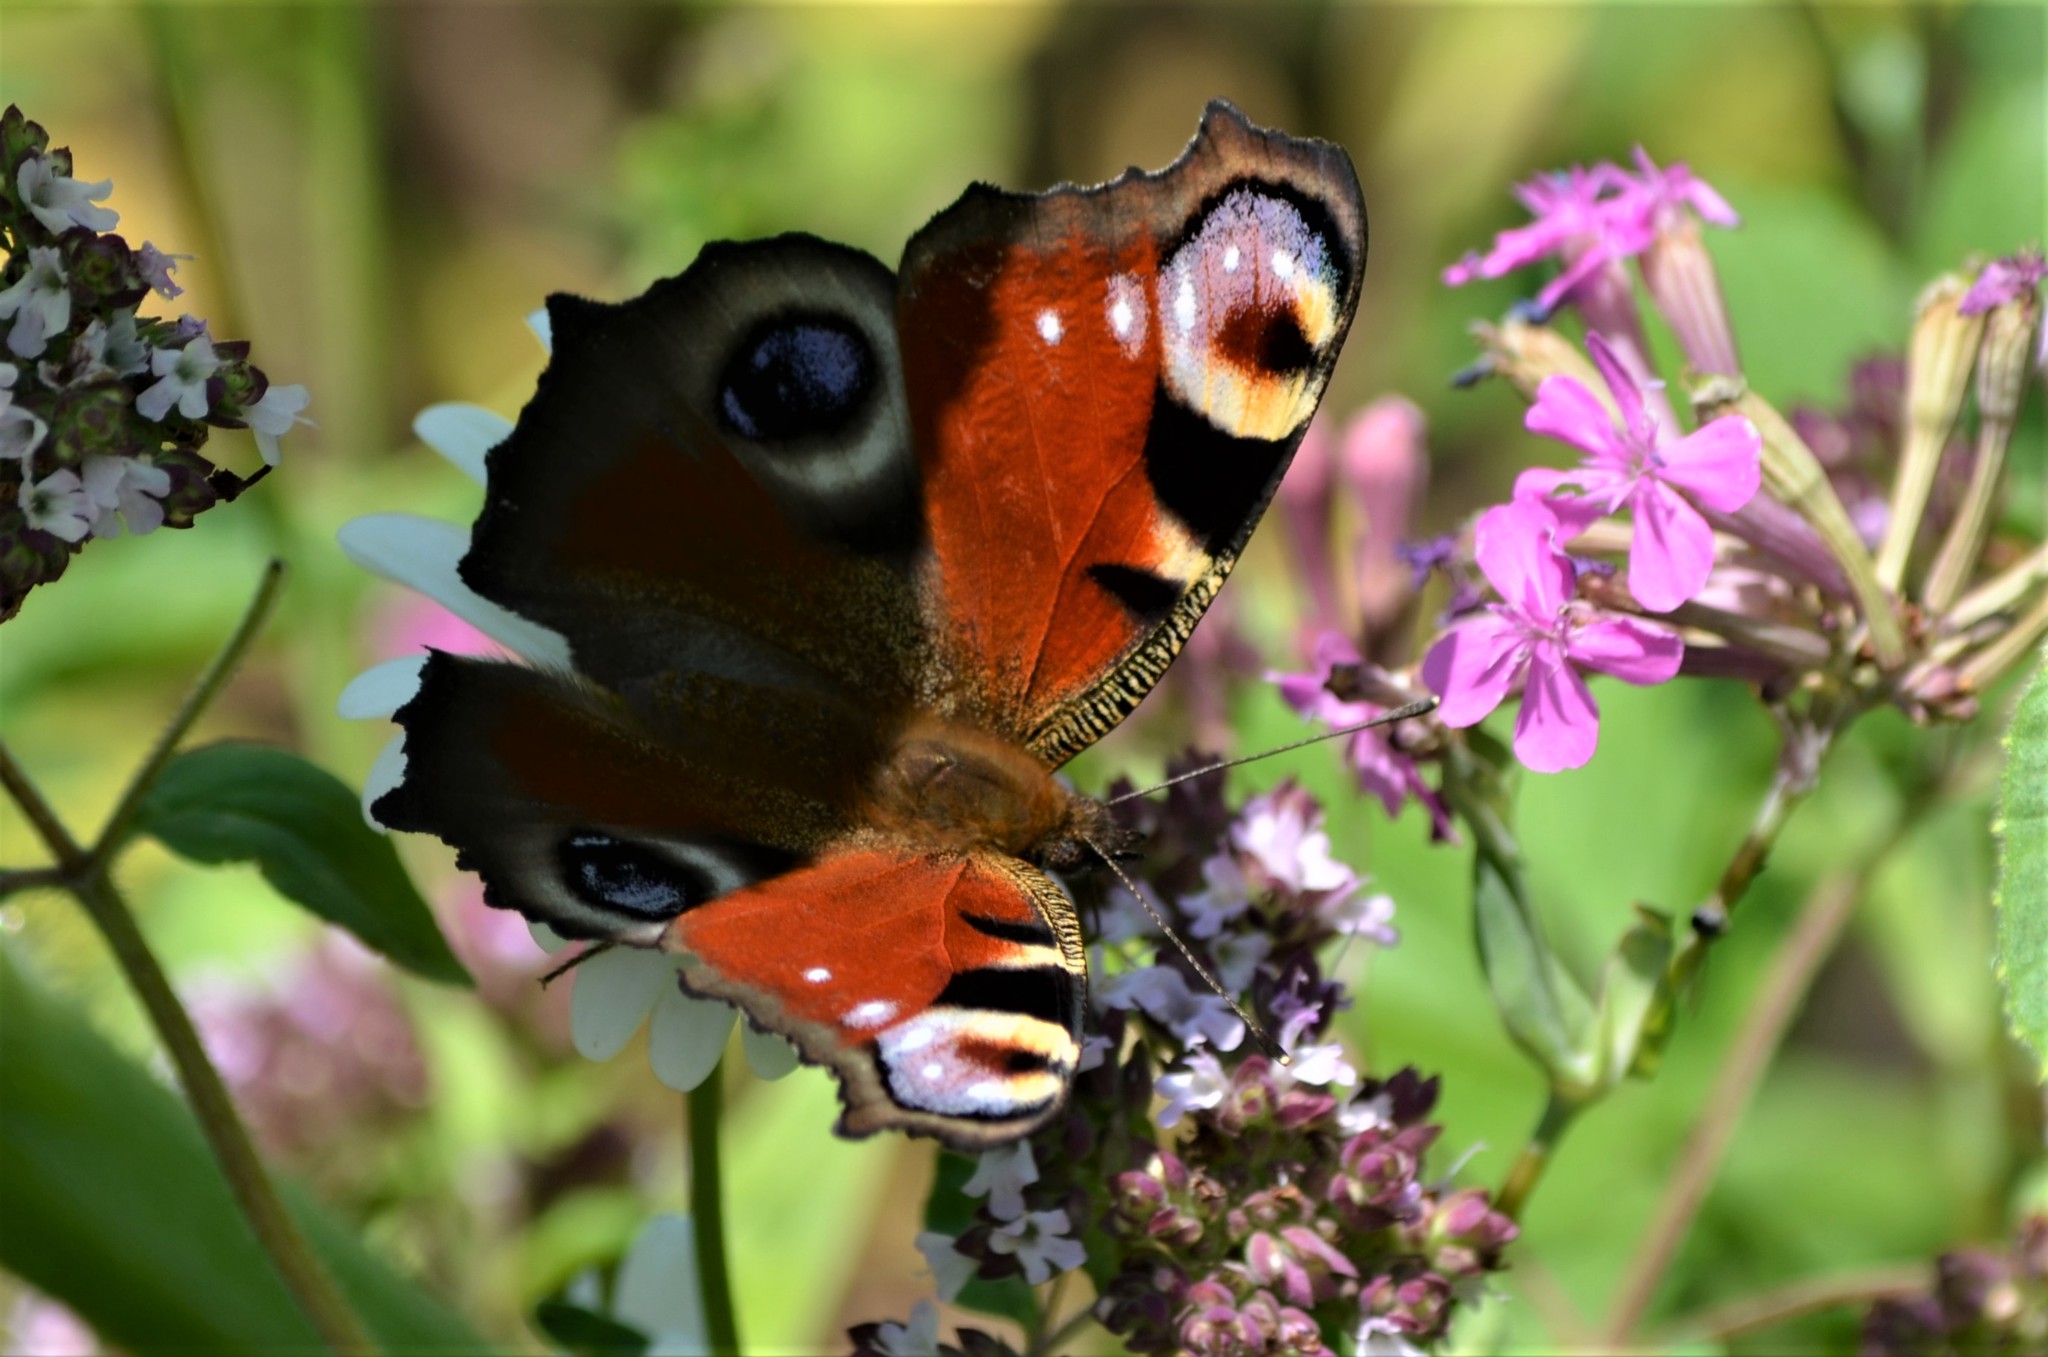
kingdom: Animalia
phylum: Arthropoda
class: Insecta
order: Lepidoptera
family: Nymphalidae
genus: Aglais
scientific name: Aglais io
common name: Peacock
